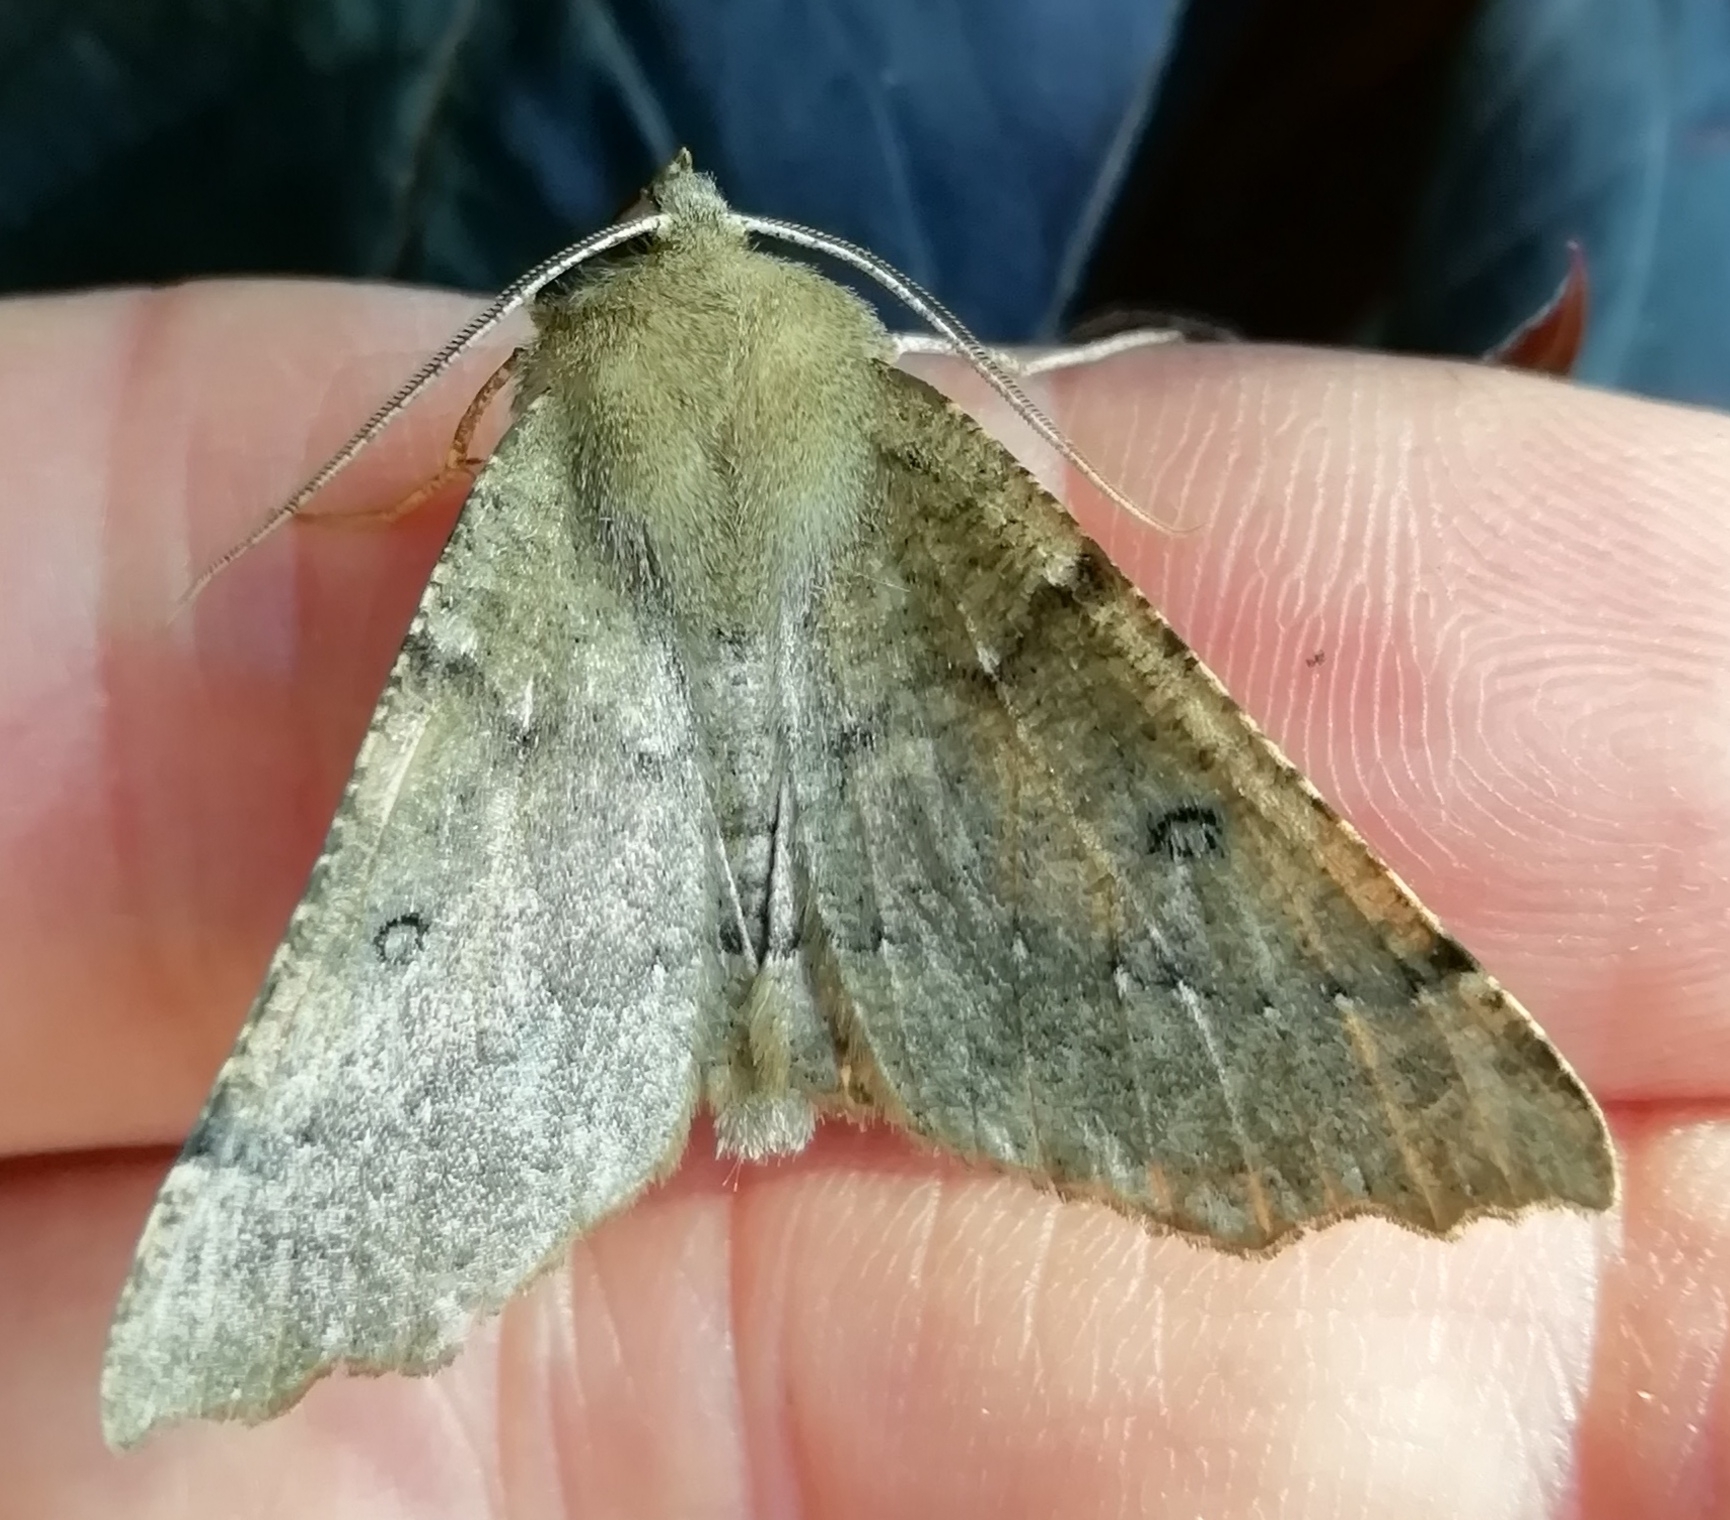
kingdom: Animalia
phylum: Arthropoda
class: Insecta
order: Lepidoptera
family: Geometridae
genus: Odontopera
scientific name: Odontopera bidentata
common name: Scalloped hazel
